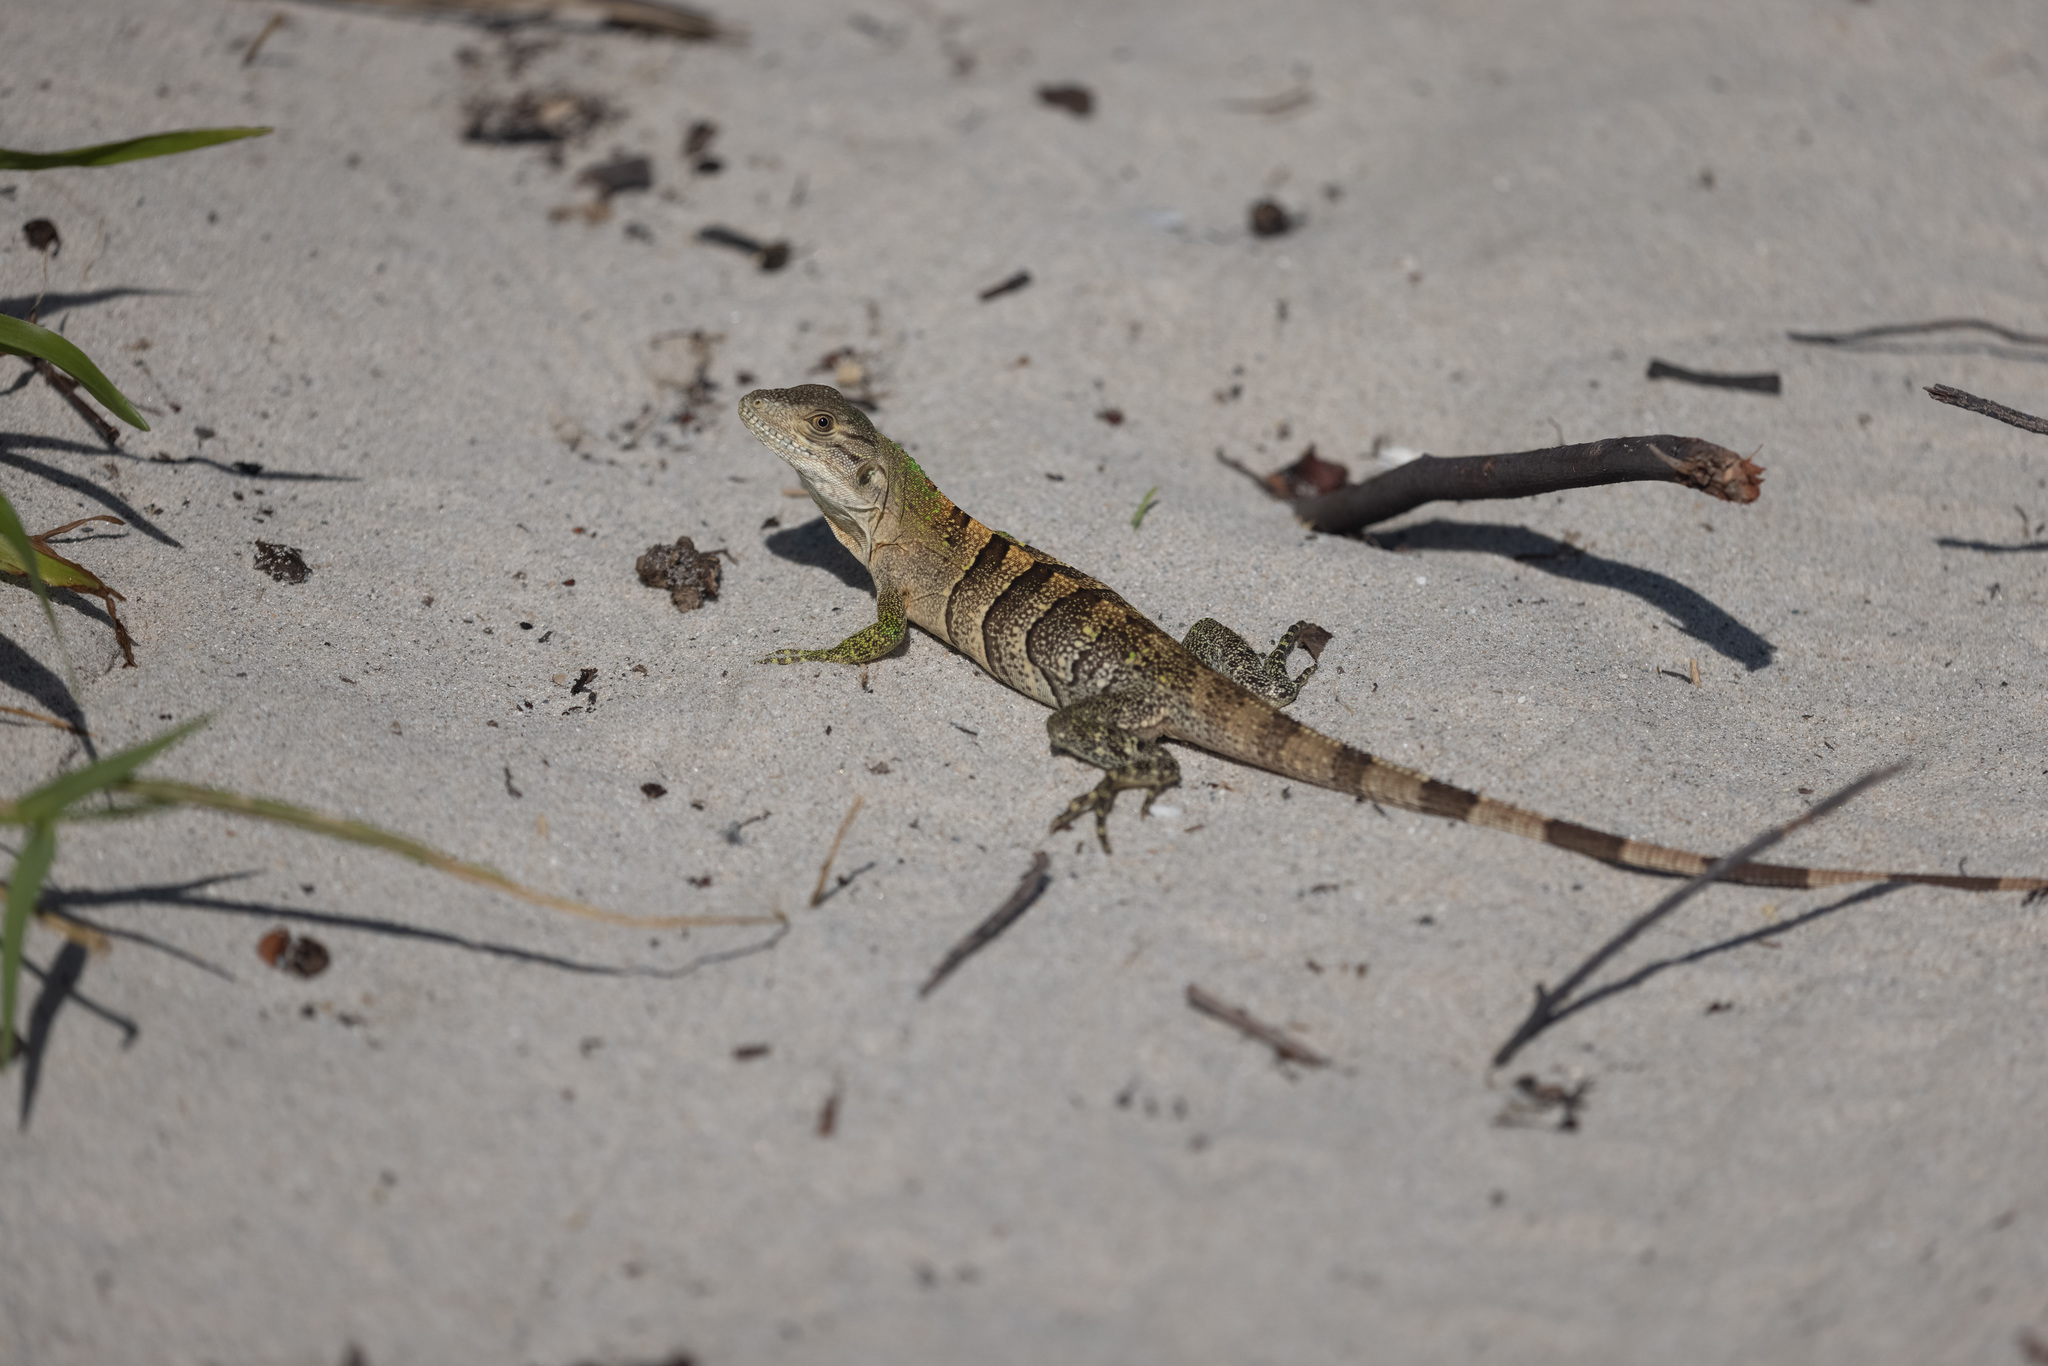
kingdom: Animalia
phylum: Chordata
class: Squamata
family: Iguanidae
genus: Ctenosaura
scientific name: Ctenosaura similis
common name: Black spiny-tailed iguana
